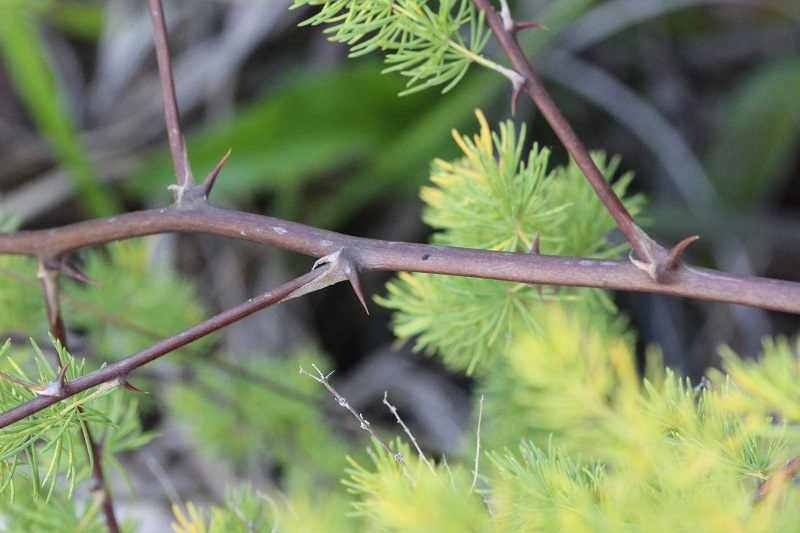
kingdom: Plantae
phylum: Tracheophyta
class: Liliopsida
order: Asparagales
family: Asparagaceae
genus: Asparagus
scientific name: Asparagus rubicundus
